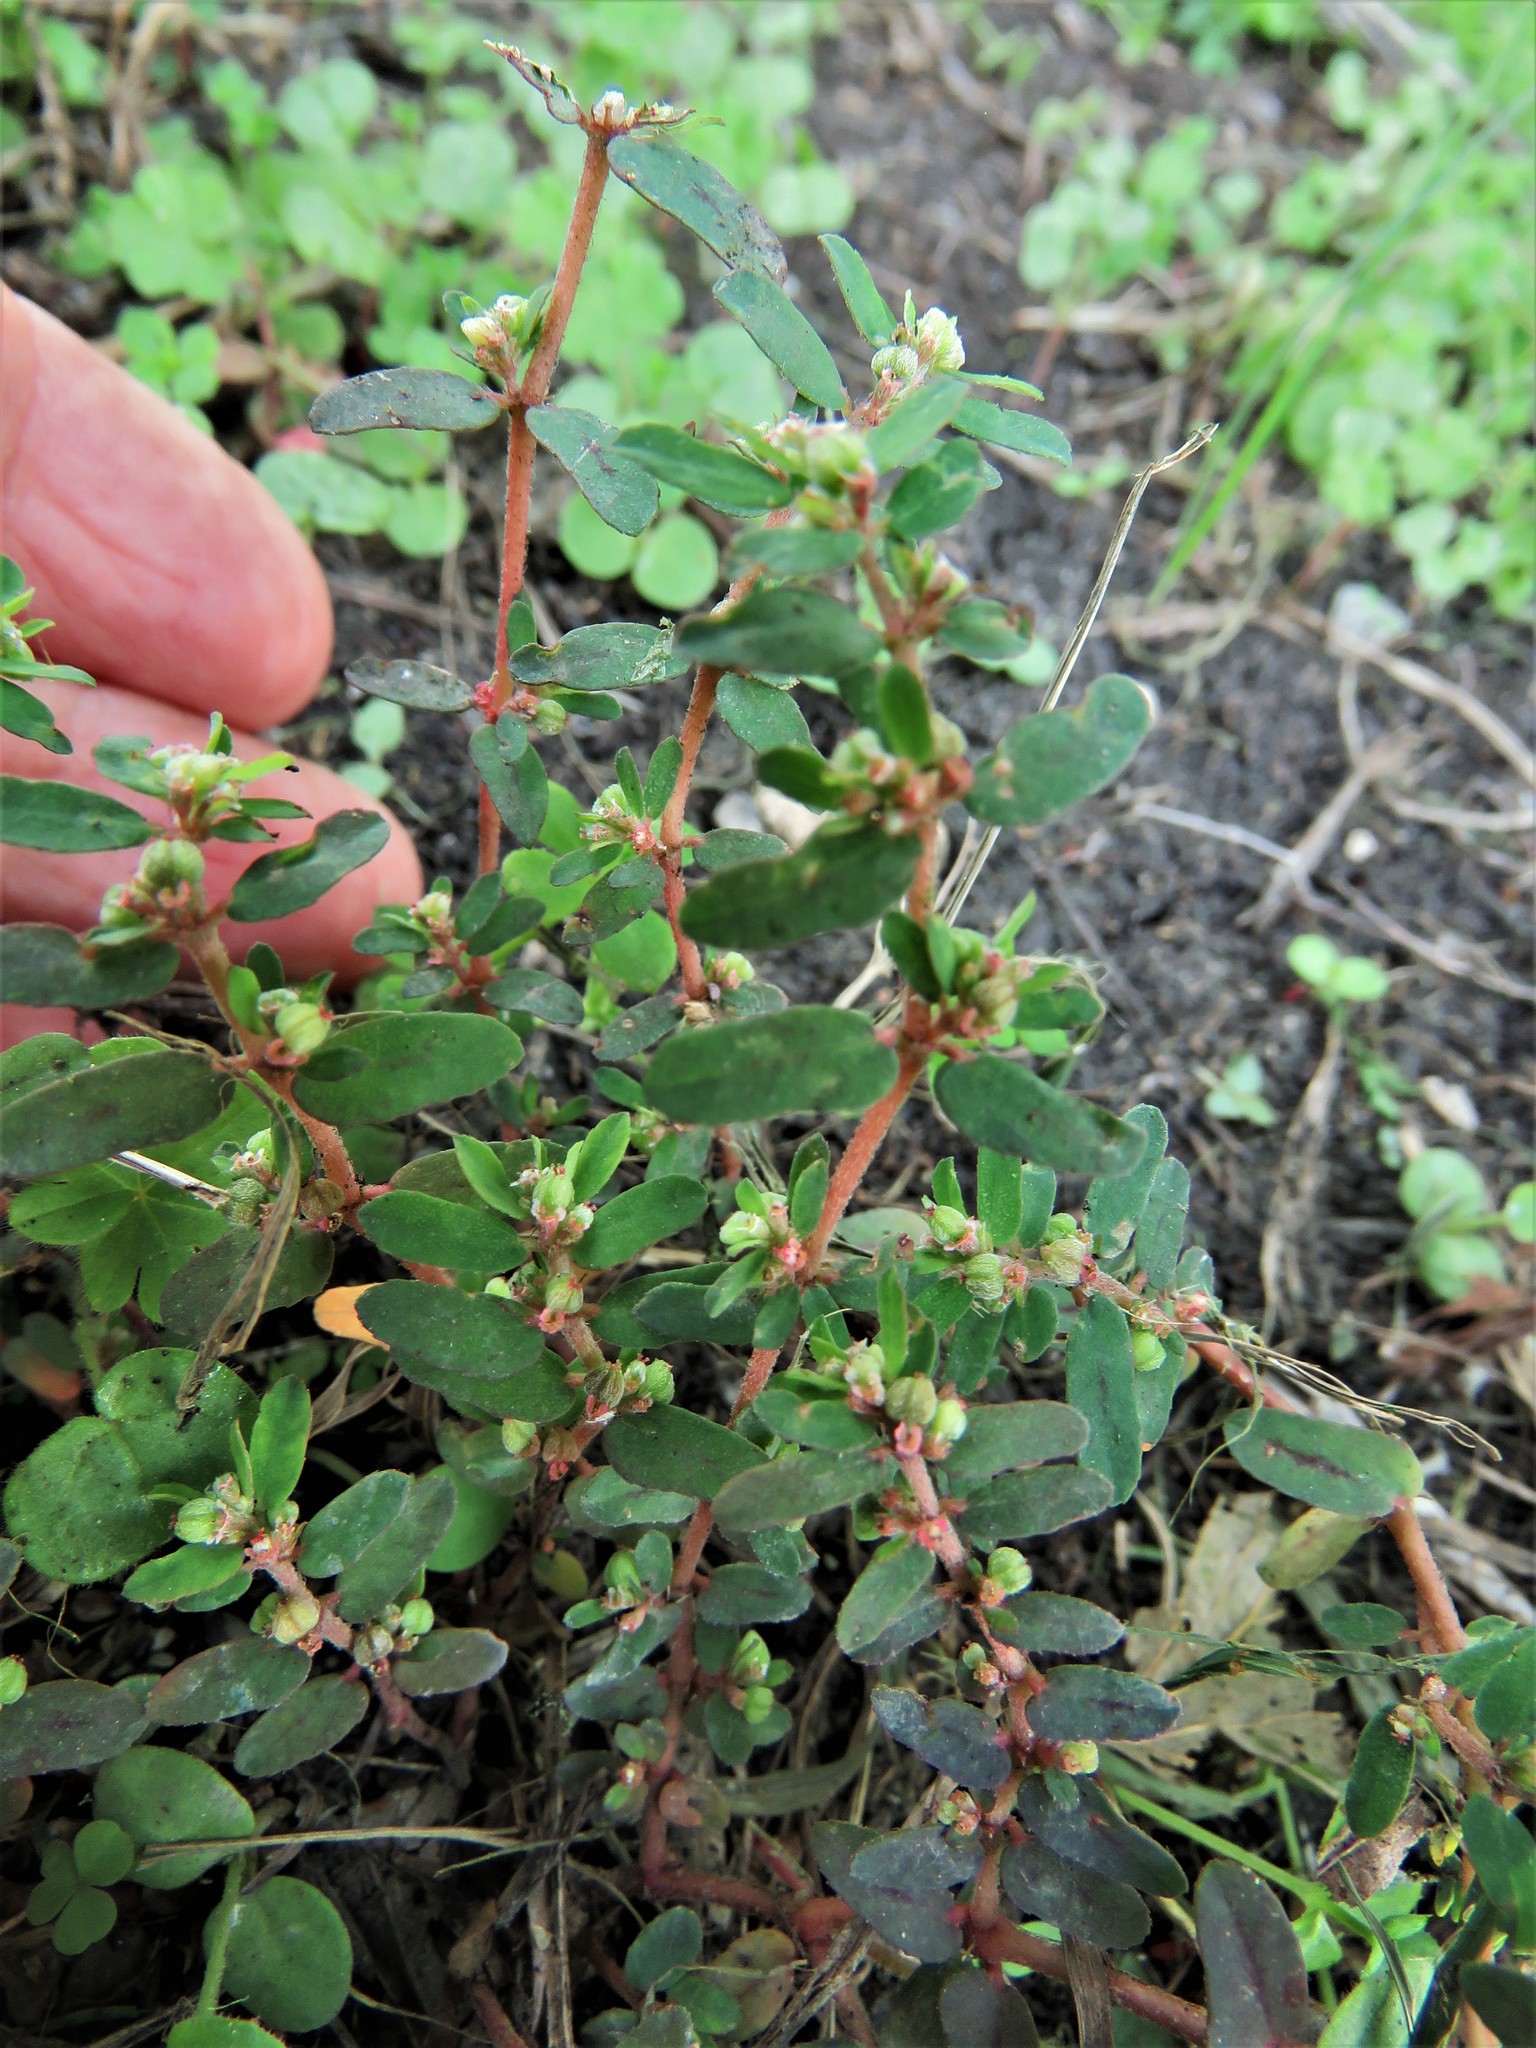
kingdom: Plantae
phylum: Tracheophyta
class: Magnoliopsida
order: Malpighiales
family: Euphorbiaceae
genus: Euphorbia
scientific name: Euphorbia maculata
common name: Spotted spurge
